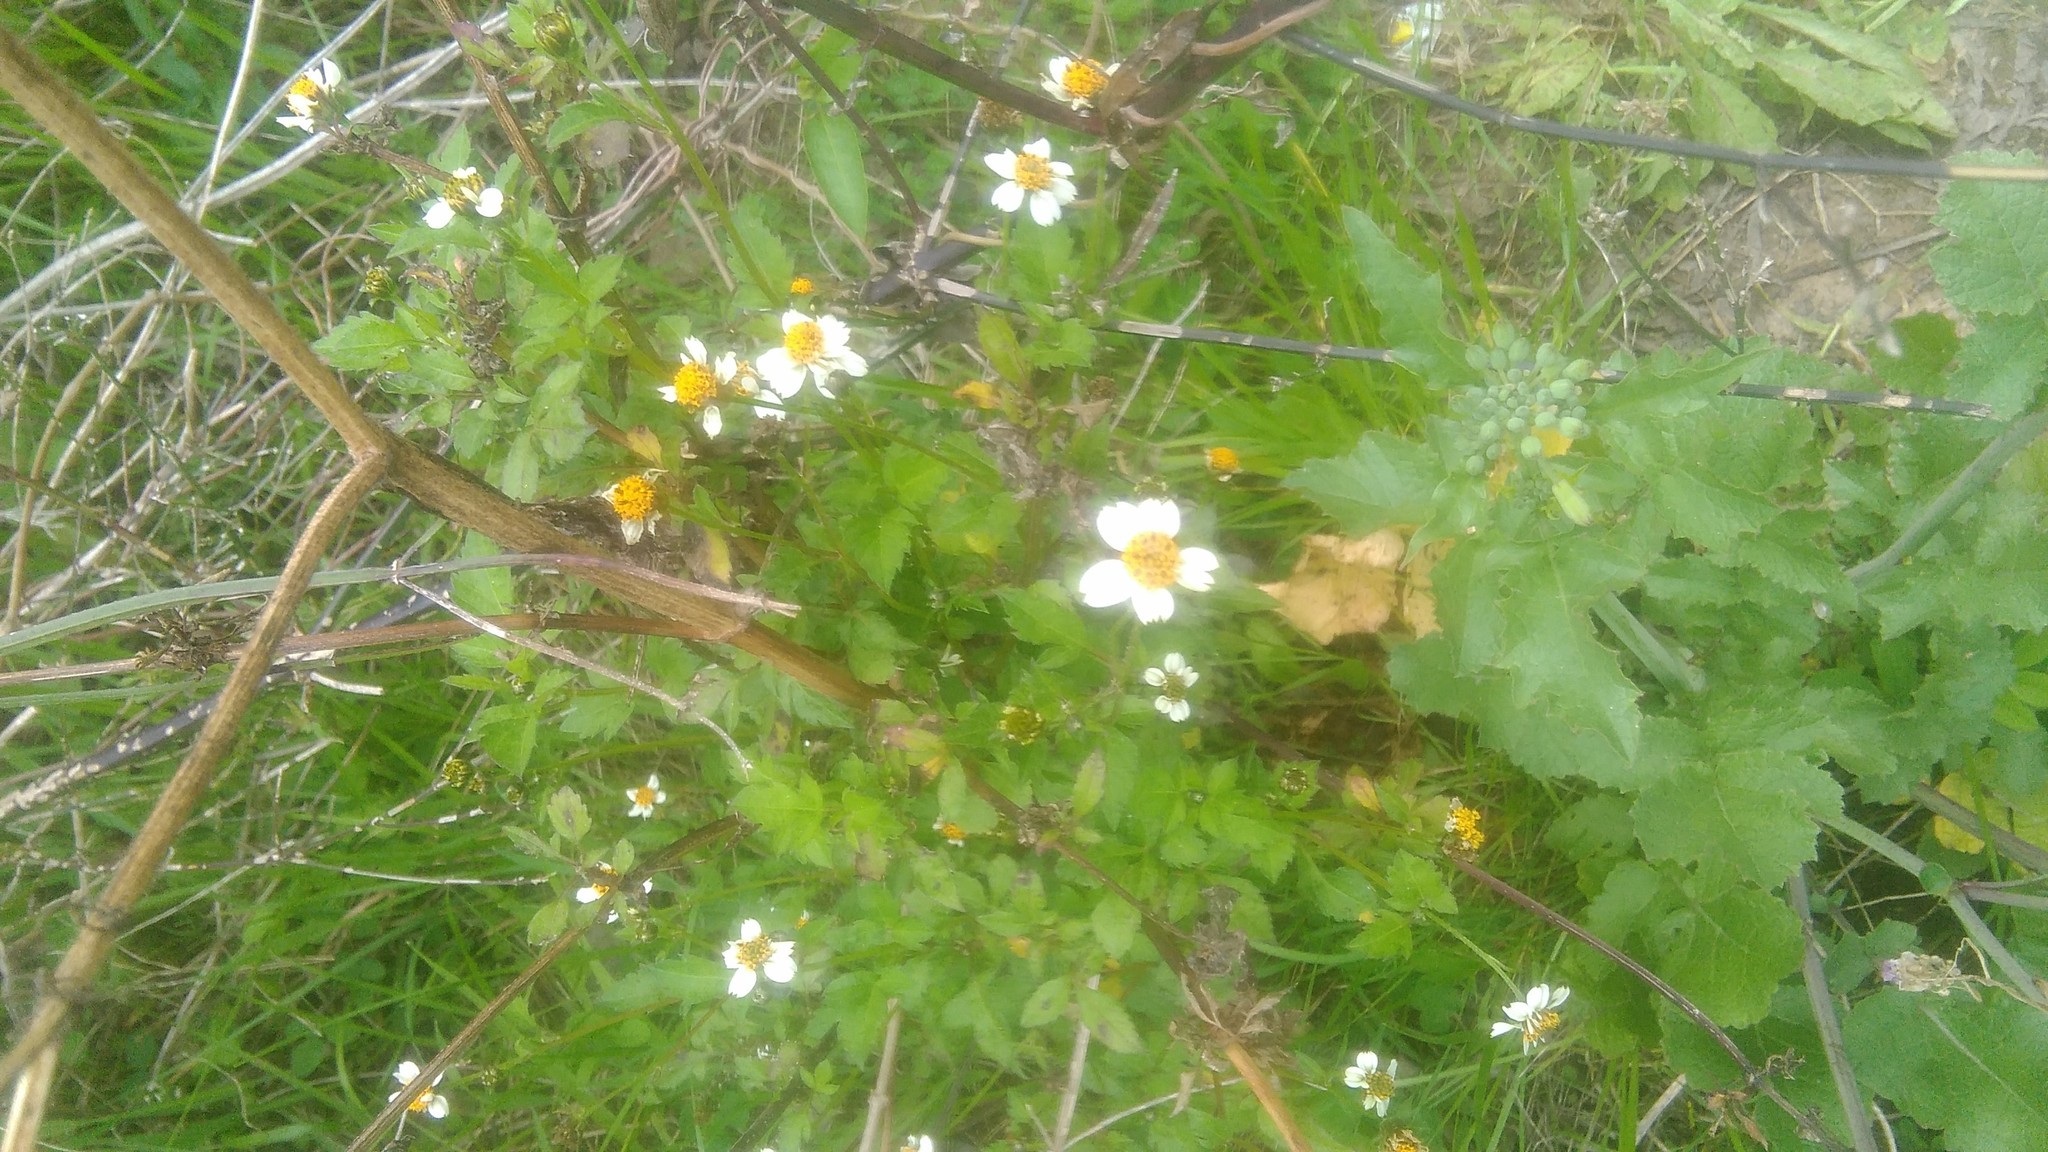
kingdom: Plantae
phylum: Tracheophyta
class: Magnoliopsida
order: Asterales
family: Asteraceae
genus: Bidens
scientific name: Bidens pilosa
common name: Black-jack
